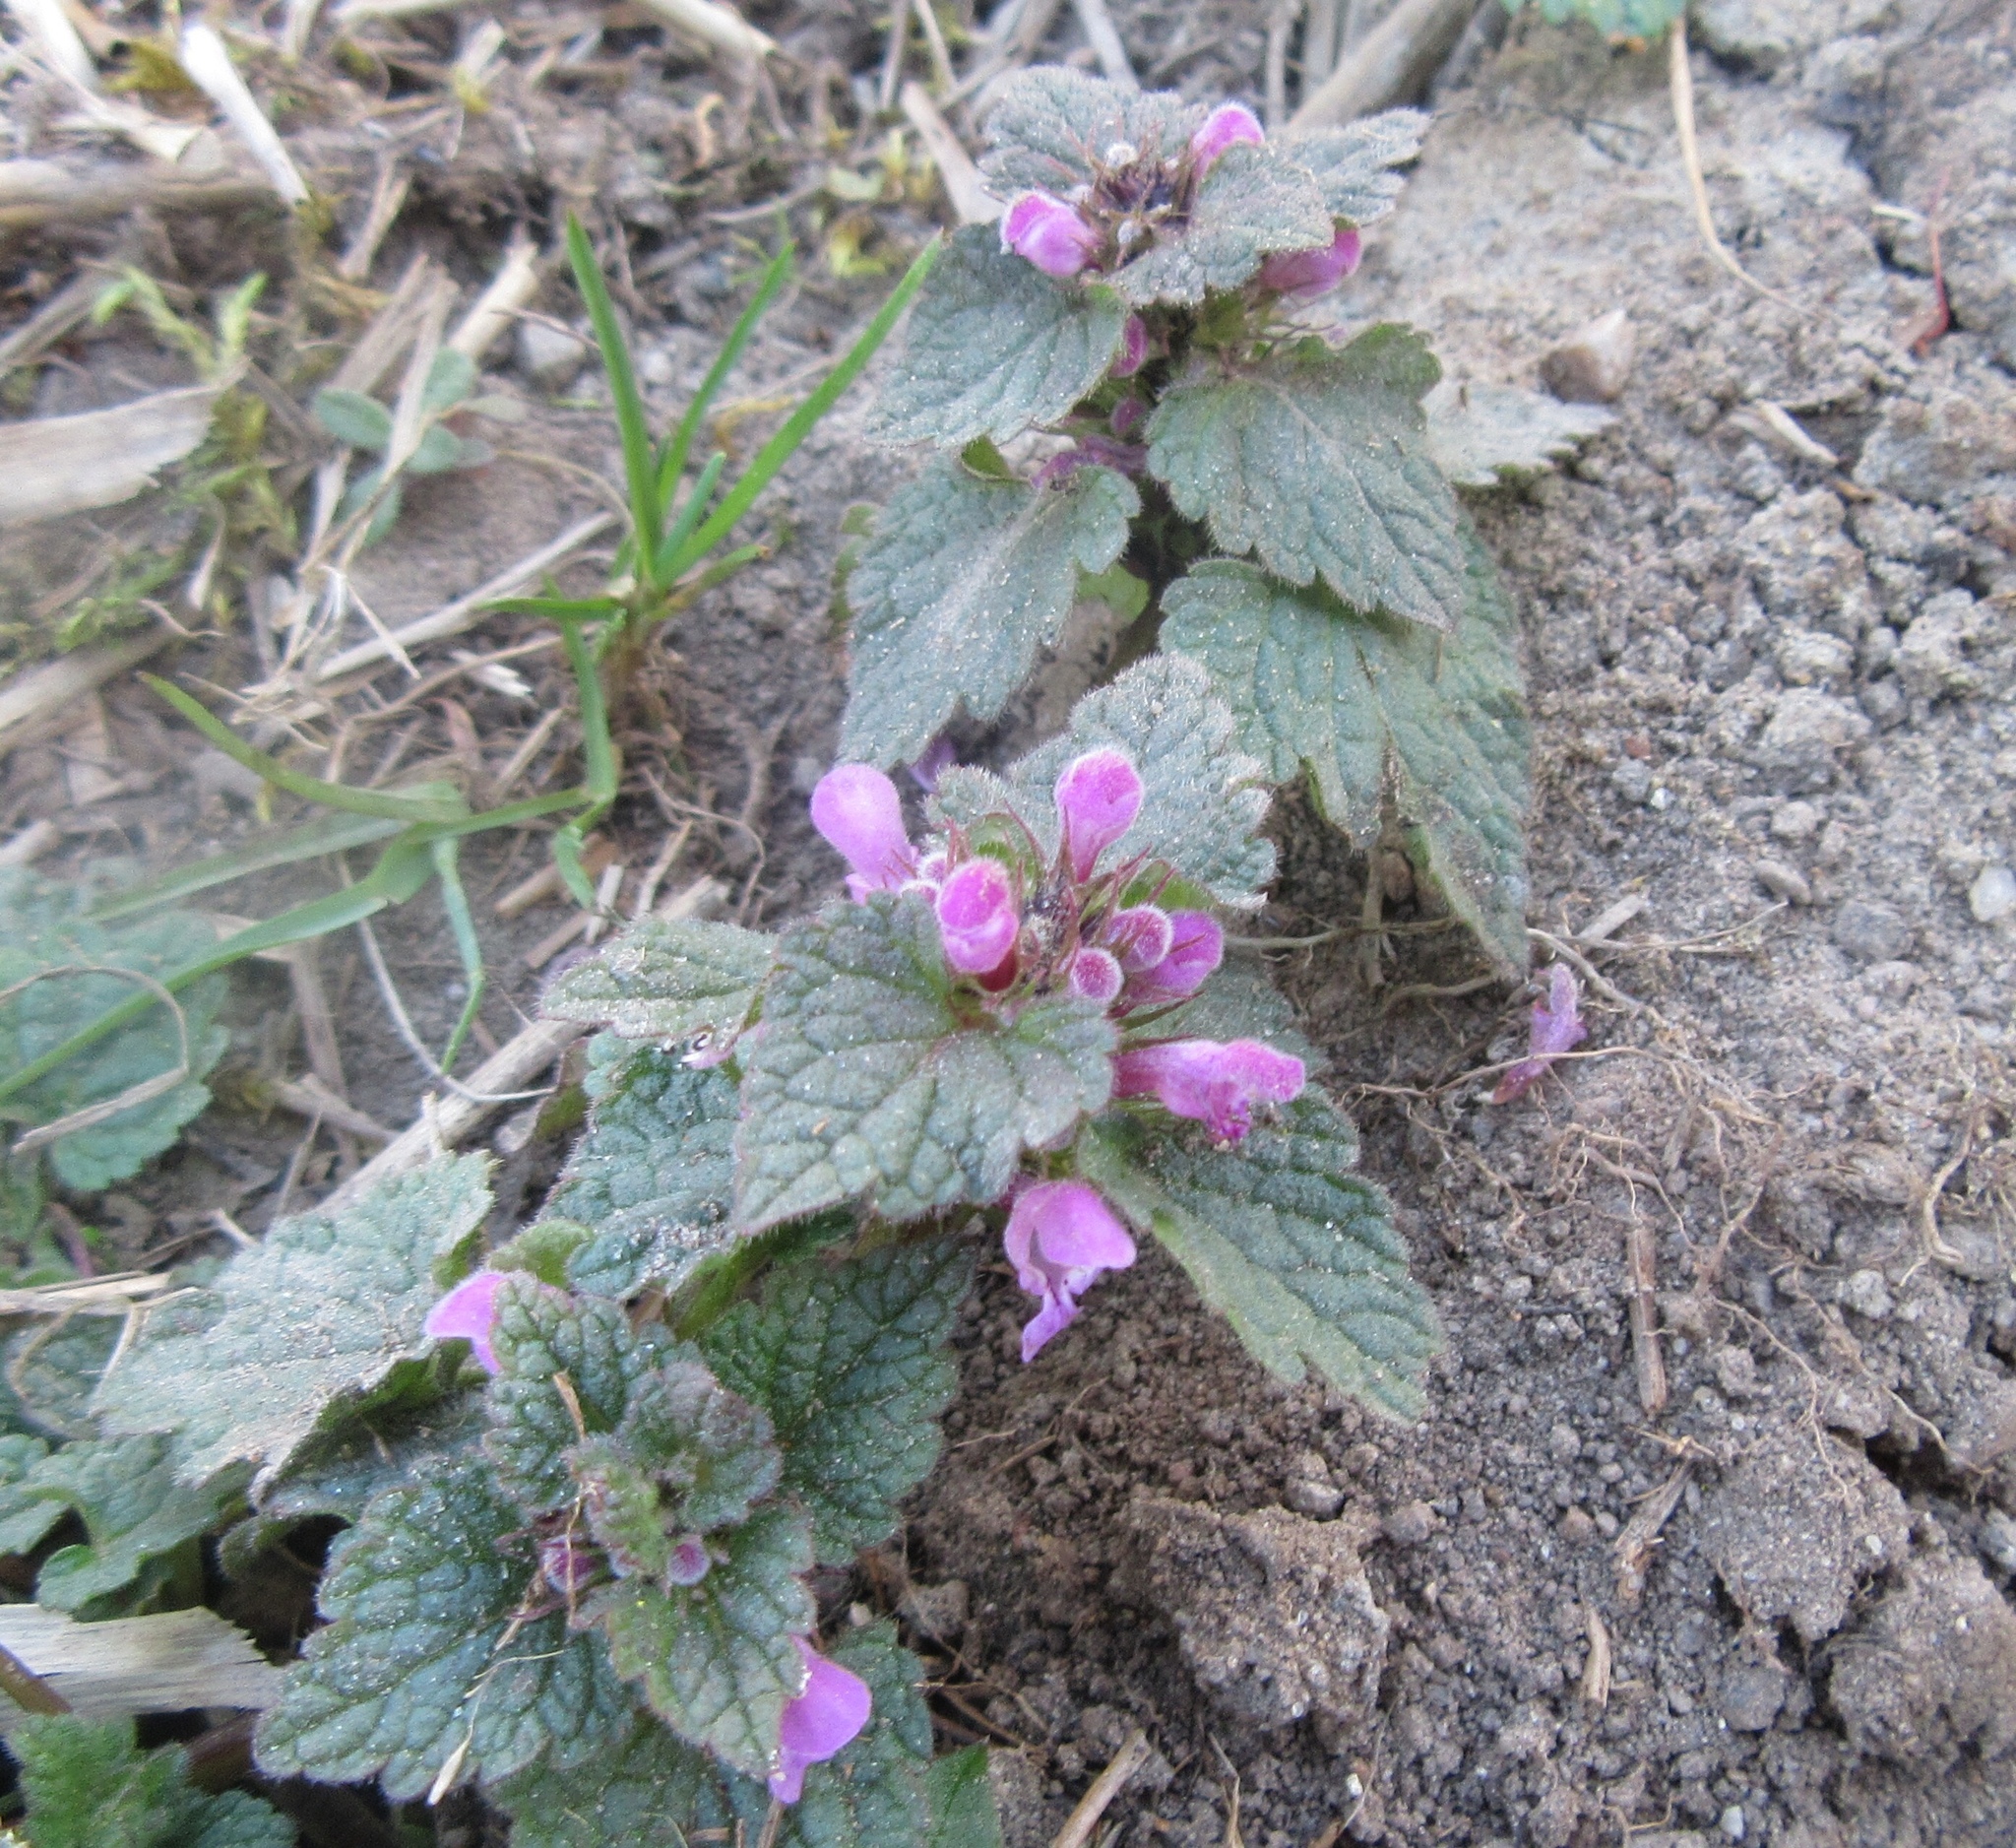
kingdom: Plantae
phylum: Tracheophyta
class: Magnoliopsida
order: Lamiales
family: Lamiaceae
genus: Lamium
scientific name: Lamium purpureum
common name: Red dead-nettle
